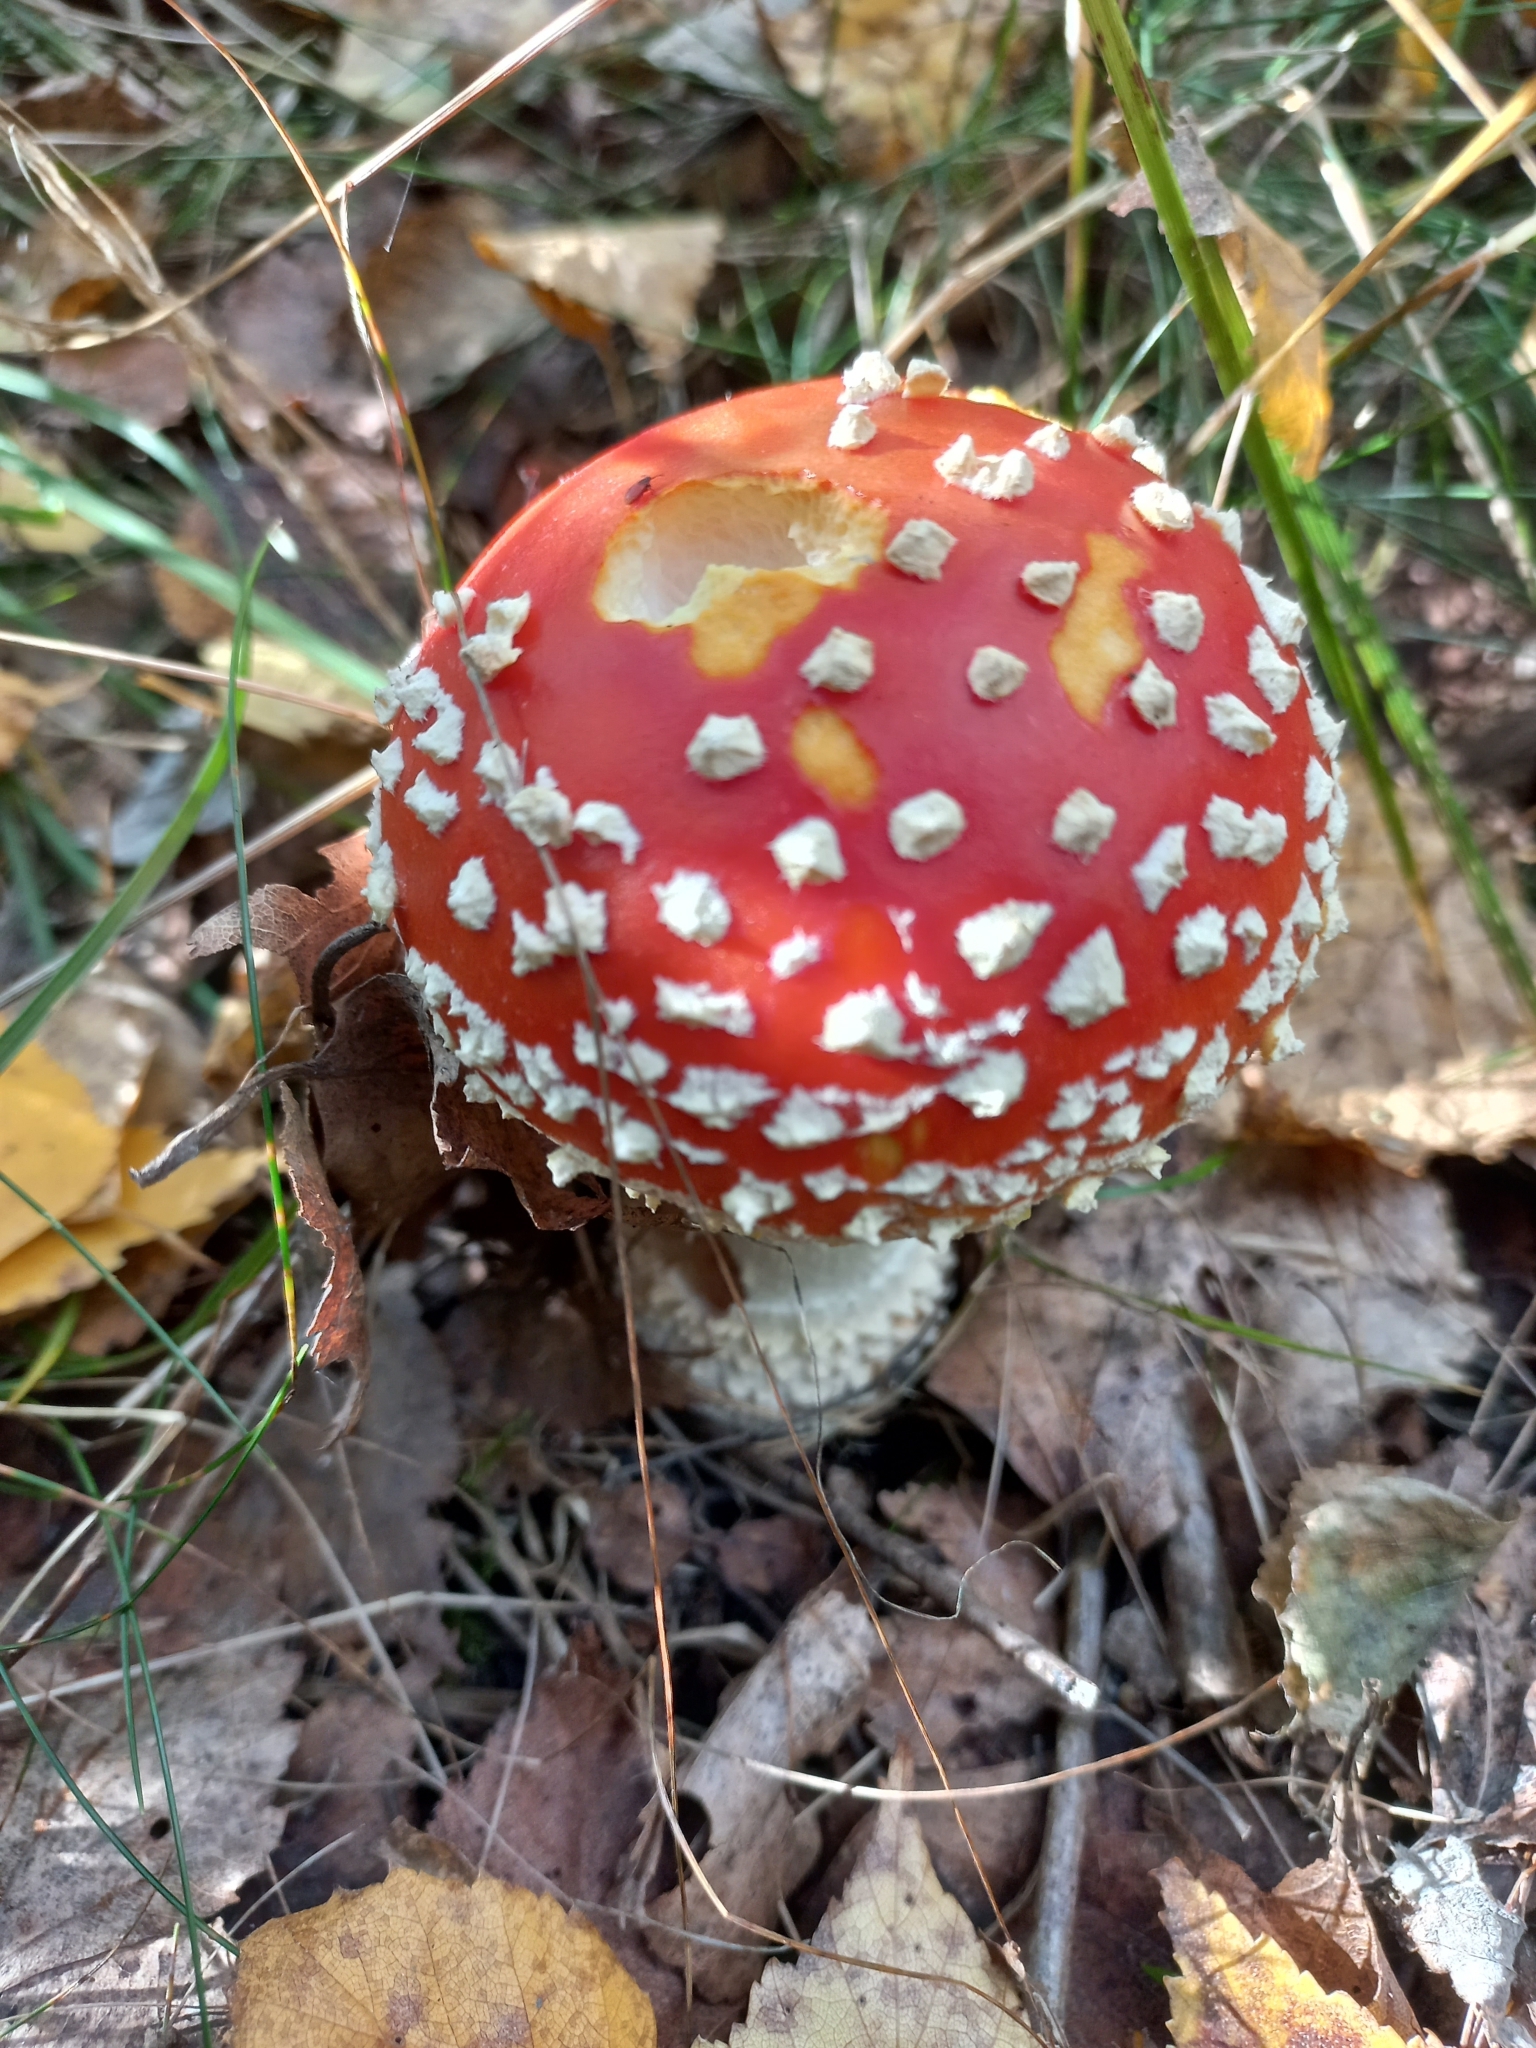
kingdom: Fungi
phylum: Basidiomycota
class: Agaricomycetes
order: Agaricales
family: Amanitaceae
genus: Amanita
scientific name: Amanita muscaria
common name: Fly agaric
